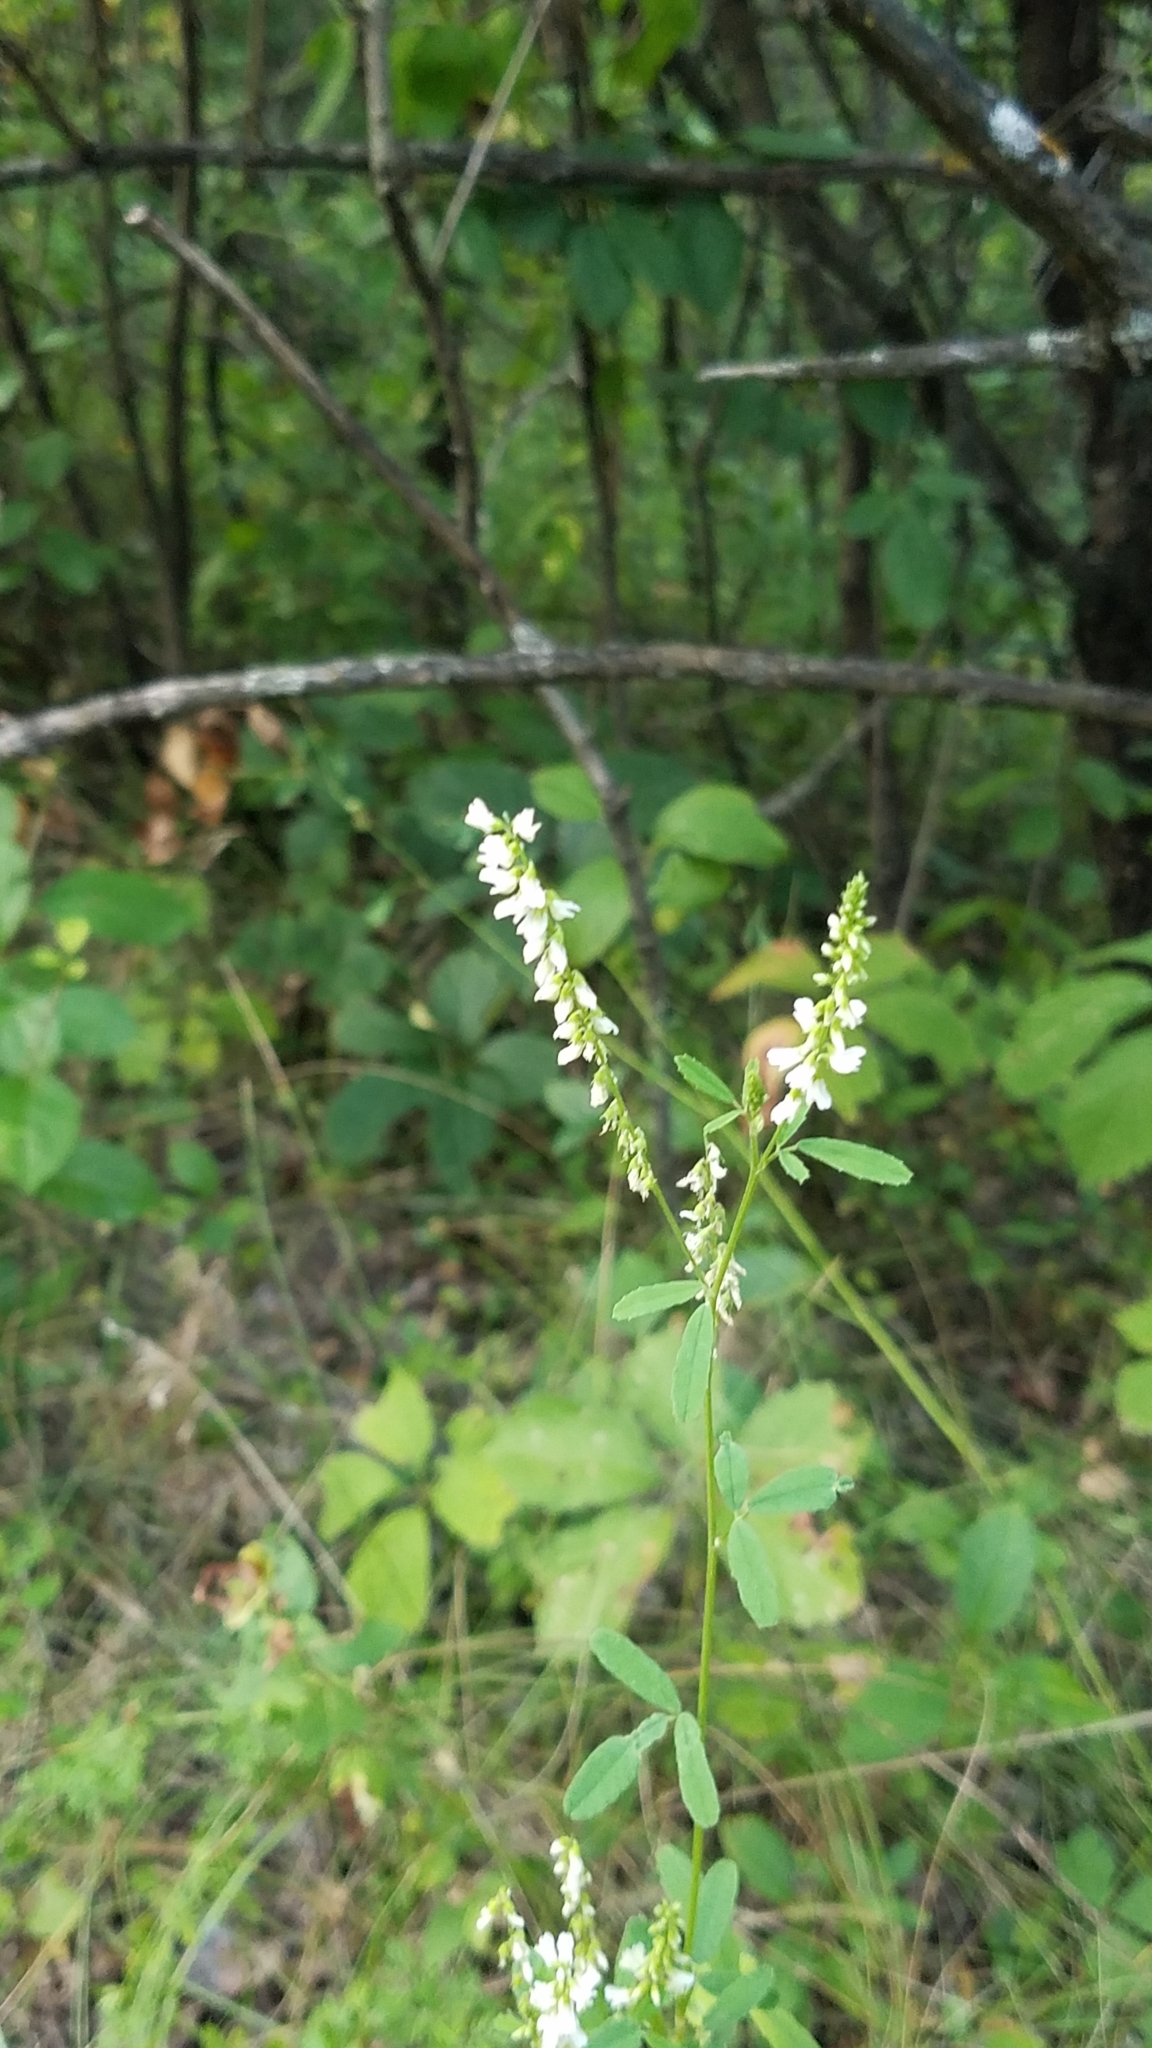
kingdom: Plantae
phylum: Tracheophyta
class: Magnoliopsida
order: Fabales
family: Fabaceae
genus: Melilotus
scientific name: Melilotus albus
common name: White melilot
